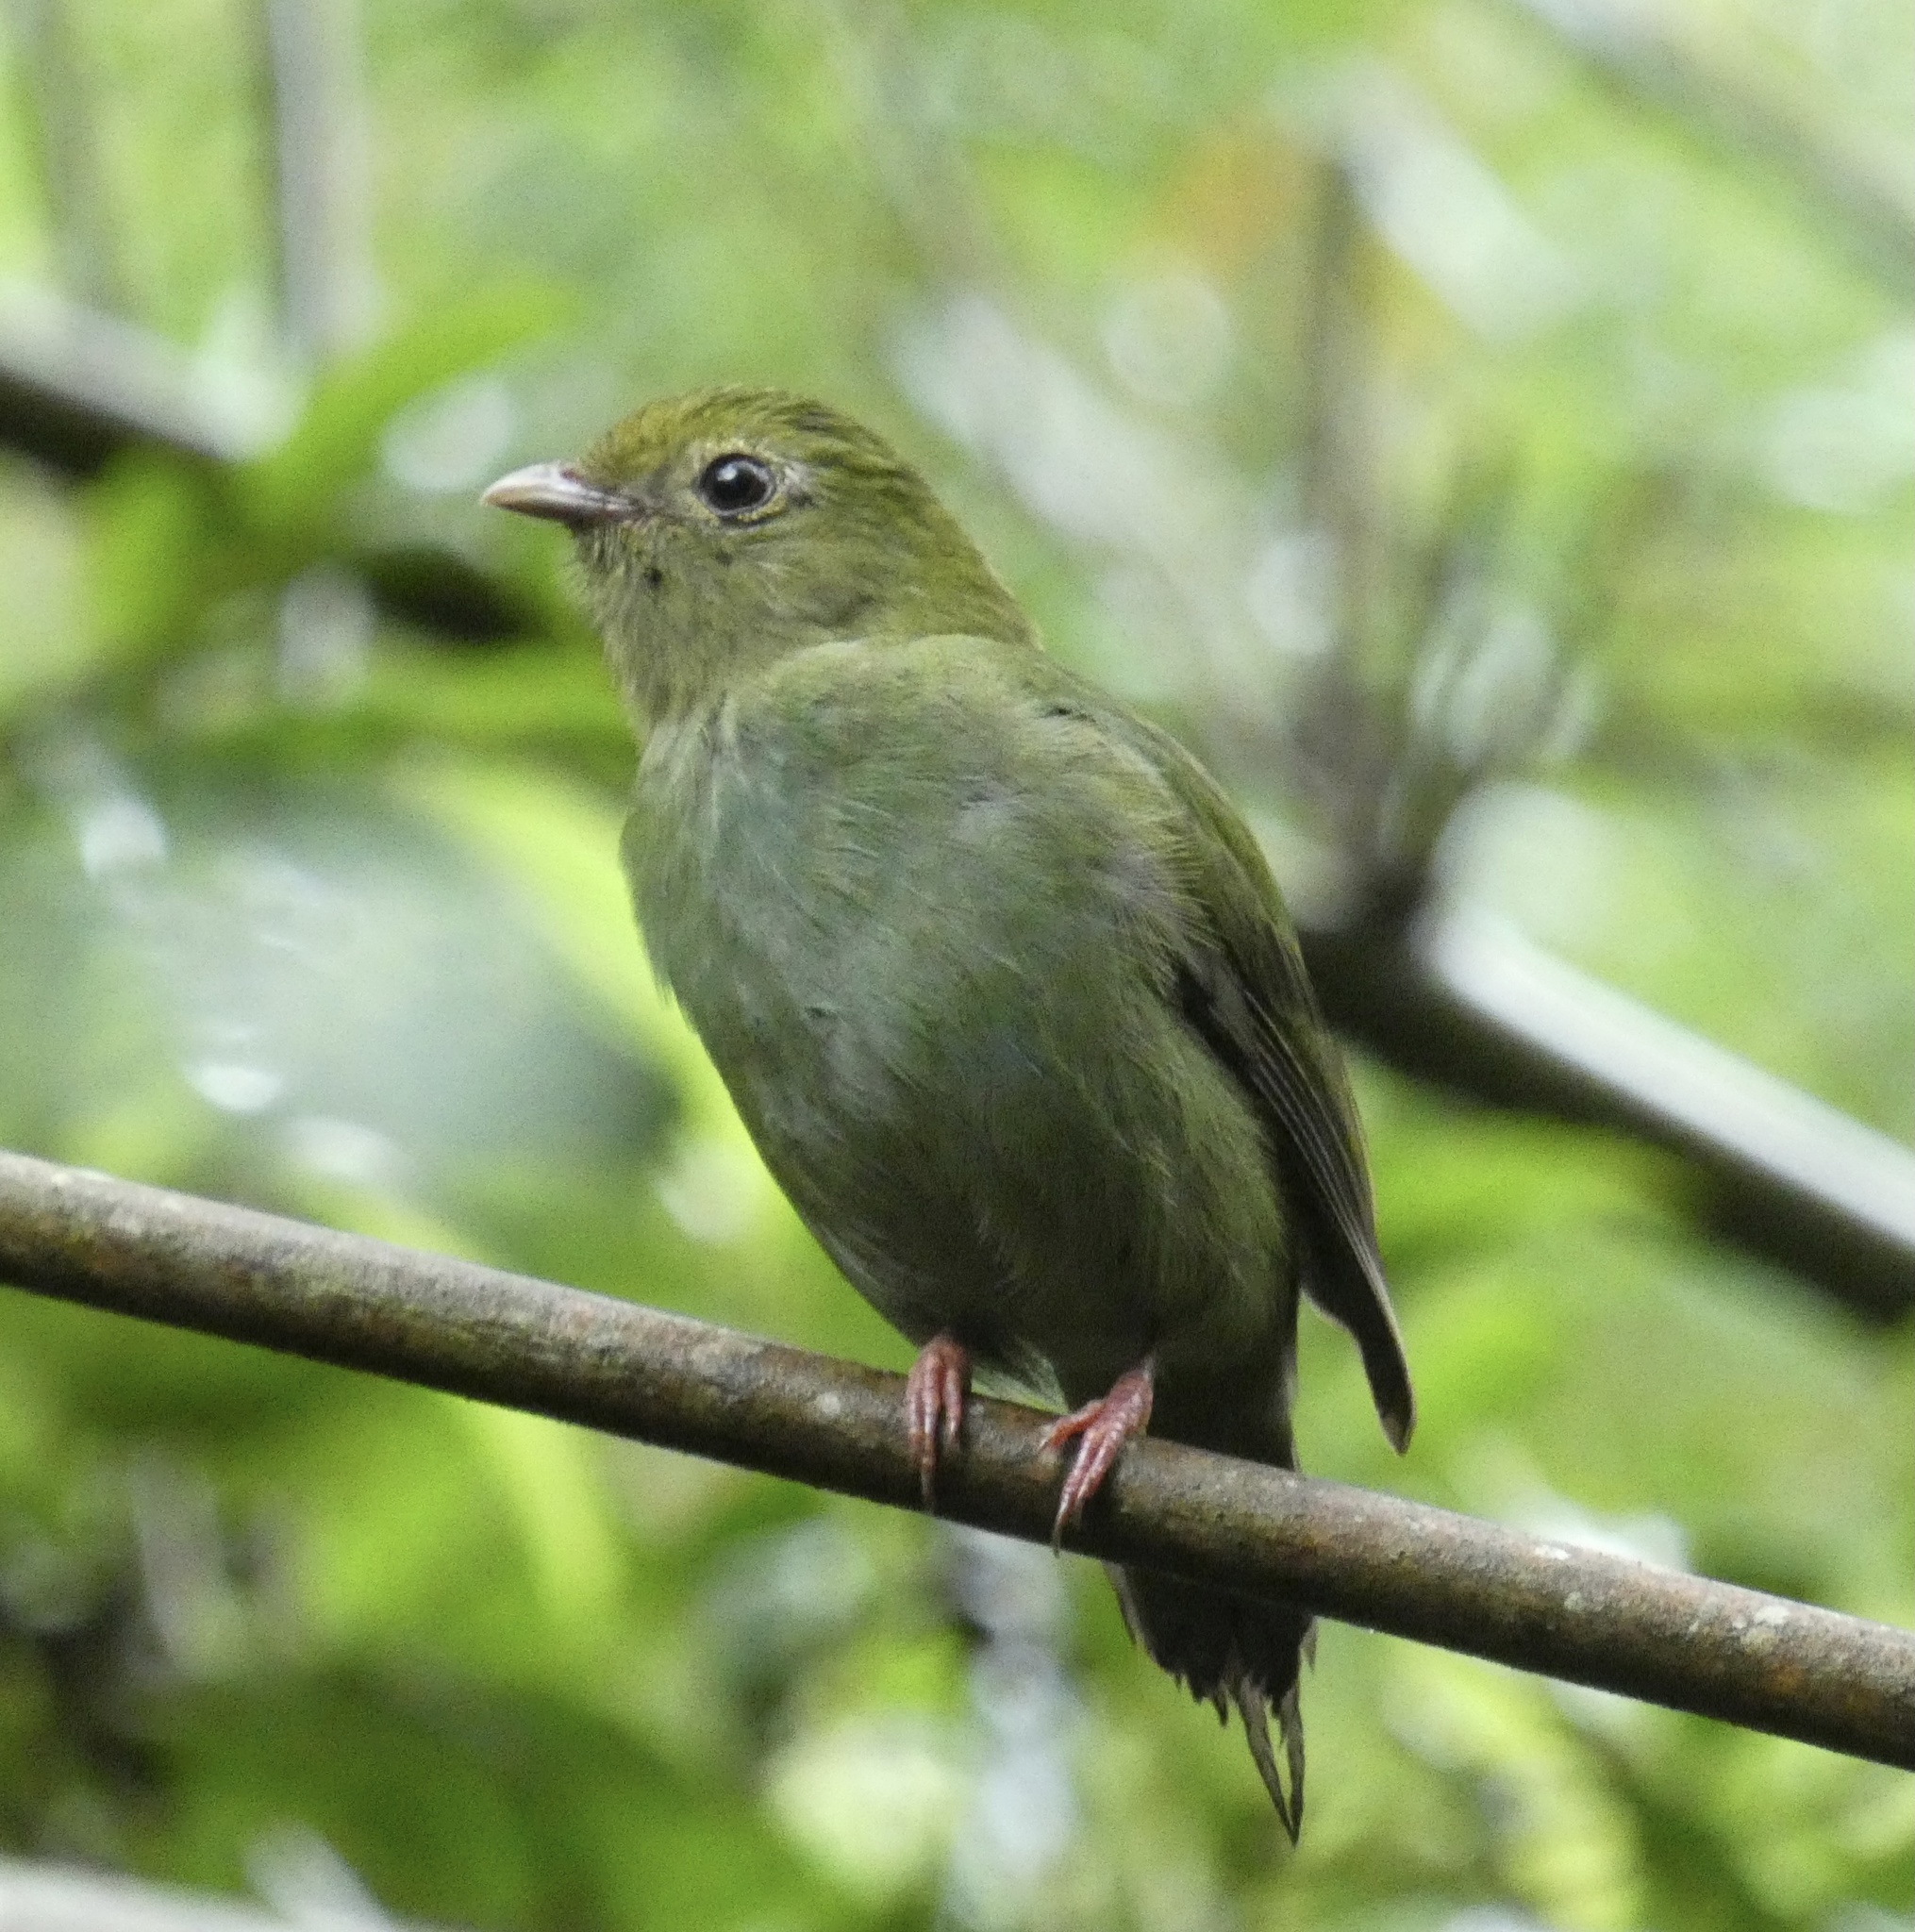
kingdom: Animalia
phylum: Chordata
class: Aves
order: Passeriformes
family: Pipridae
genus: Chiroxiphia
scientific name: Chiroxiphia caudata
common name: Blue manakin
